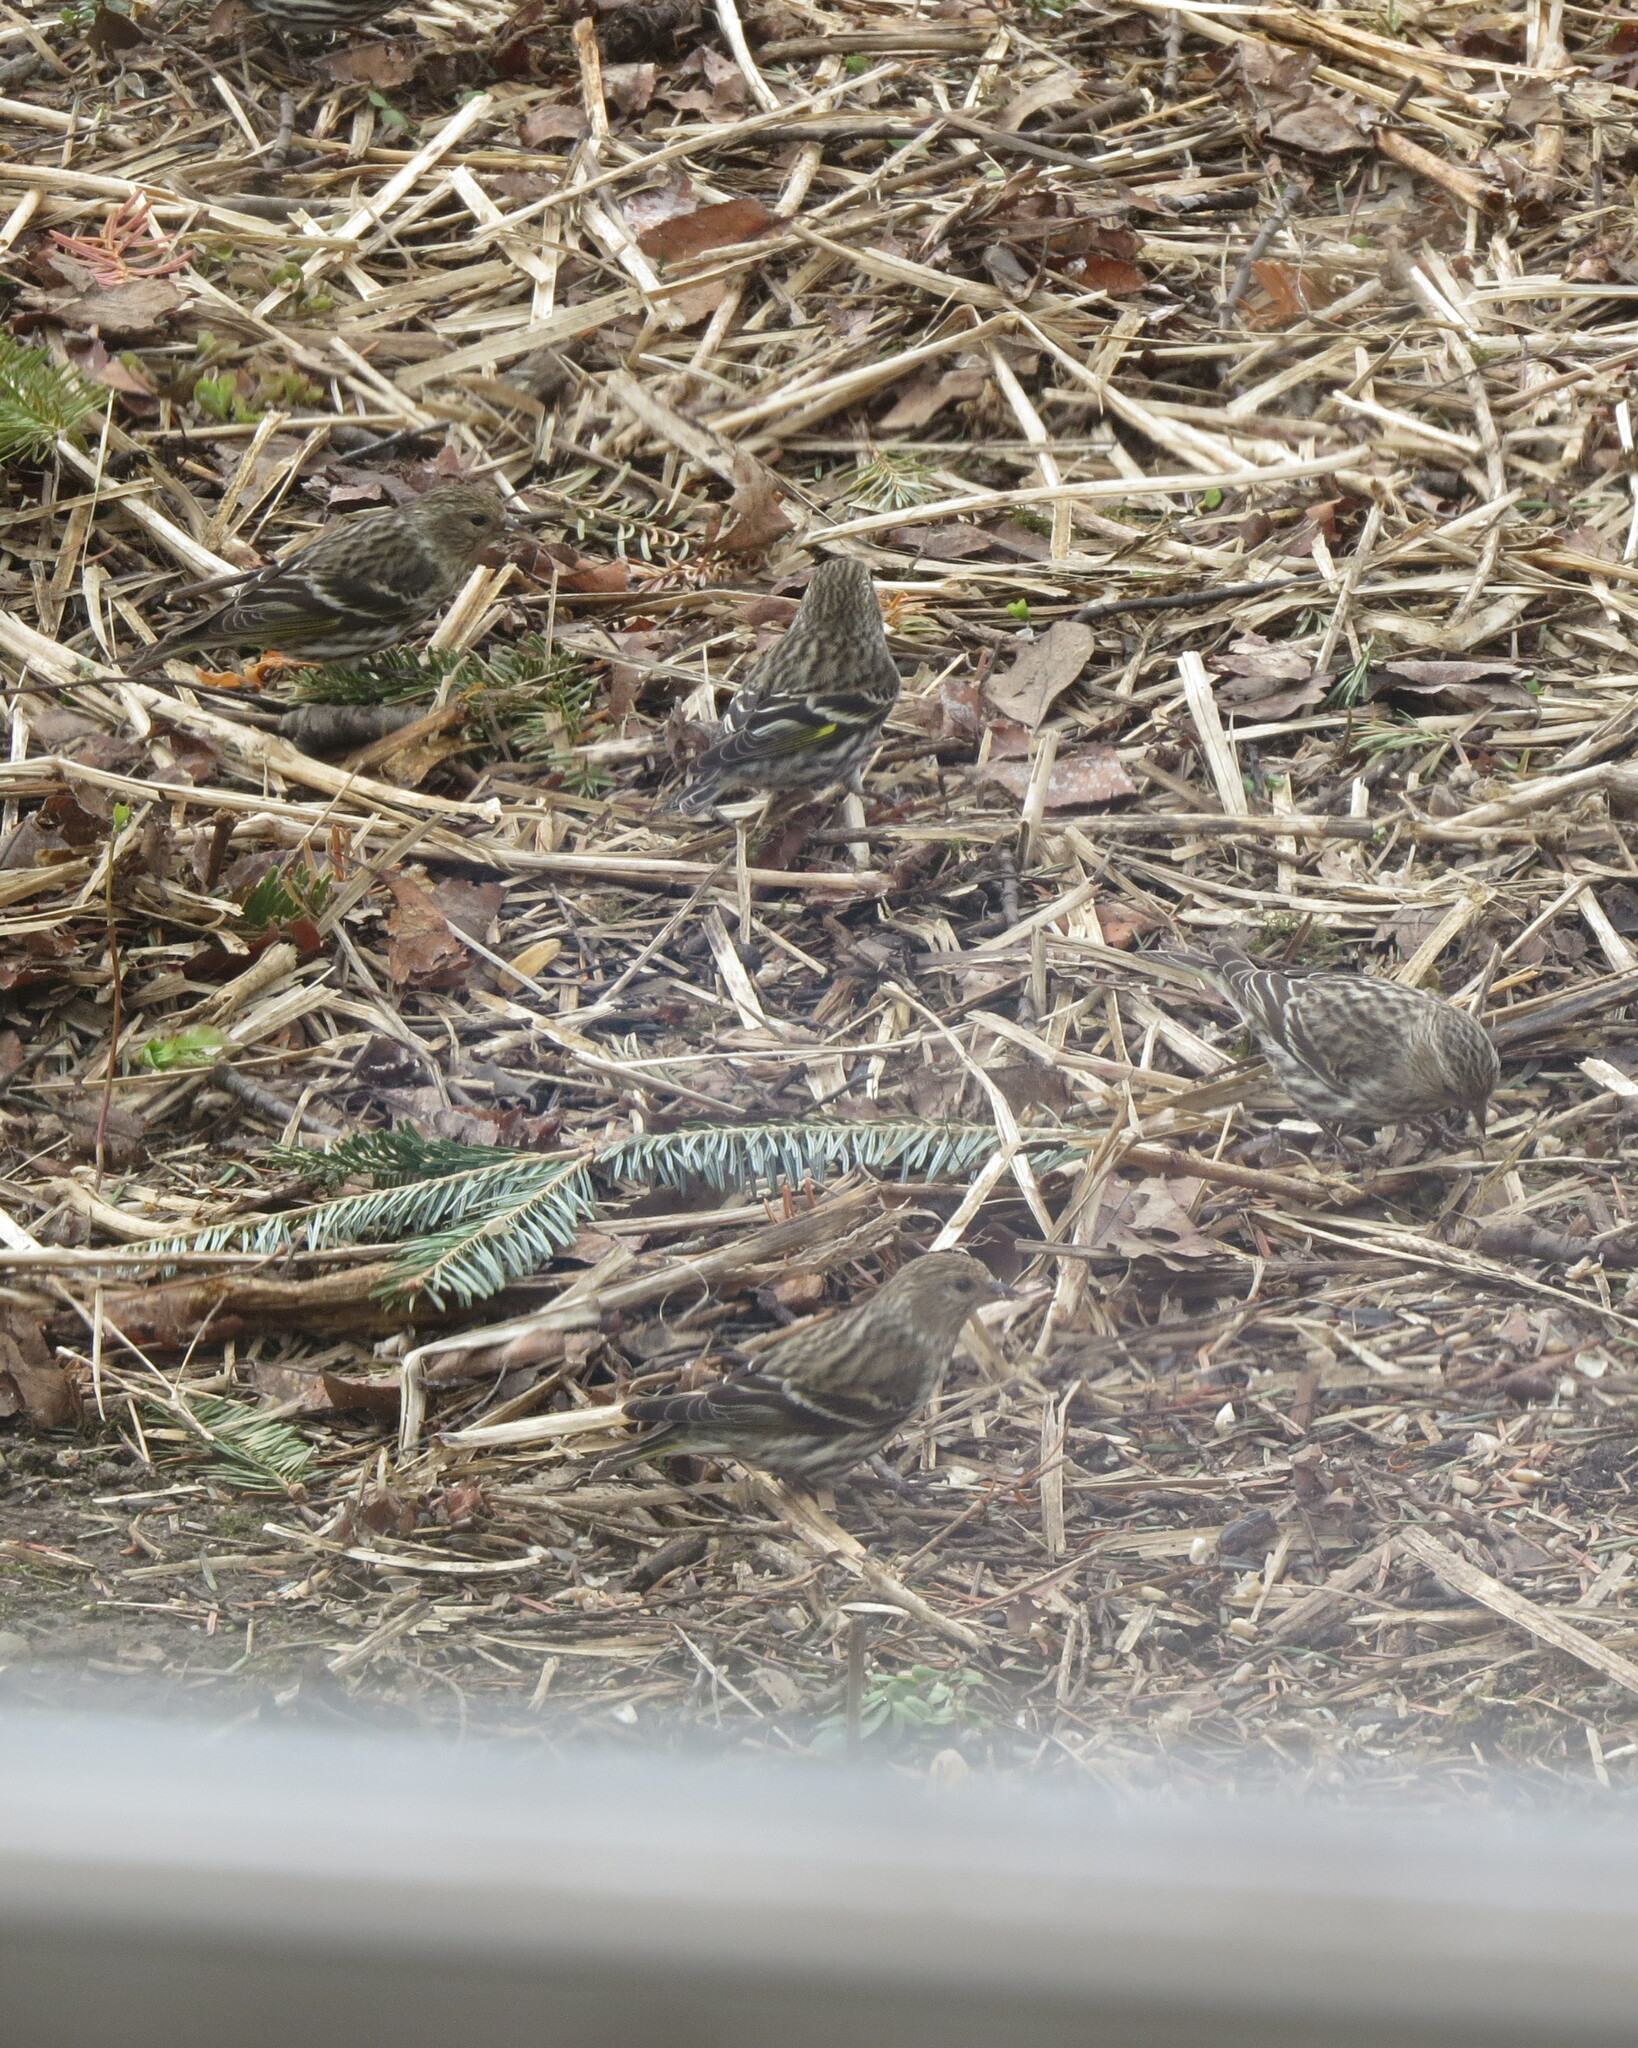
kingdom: Animalia
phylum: Chordata
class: Aves
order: Passeriformes
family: Fringillidae
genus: Spinus
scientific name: Spinus pinus
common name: Pine siskin
